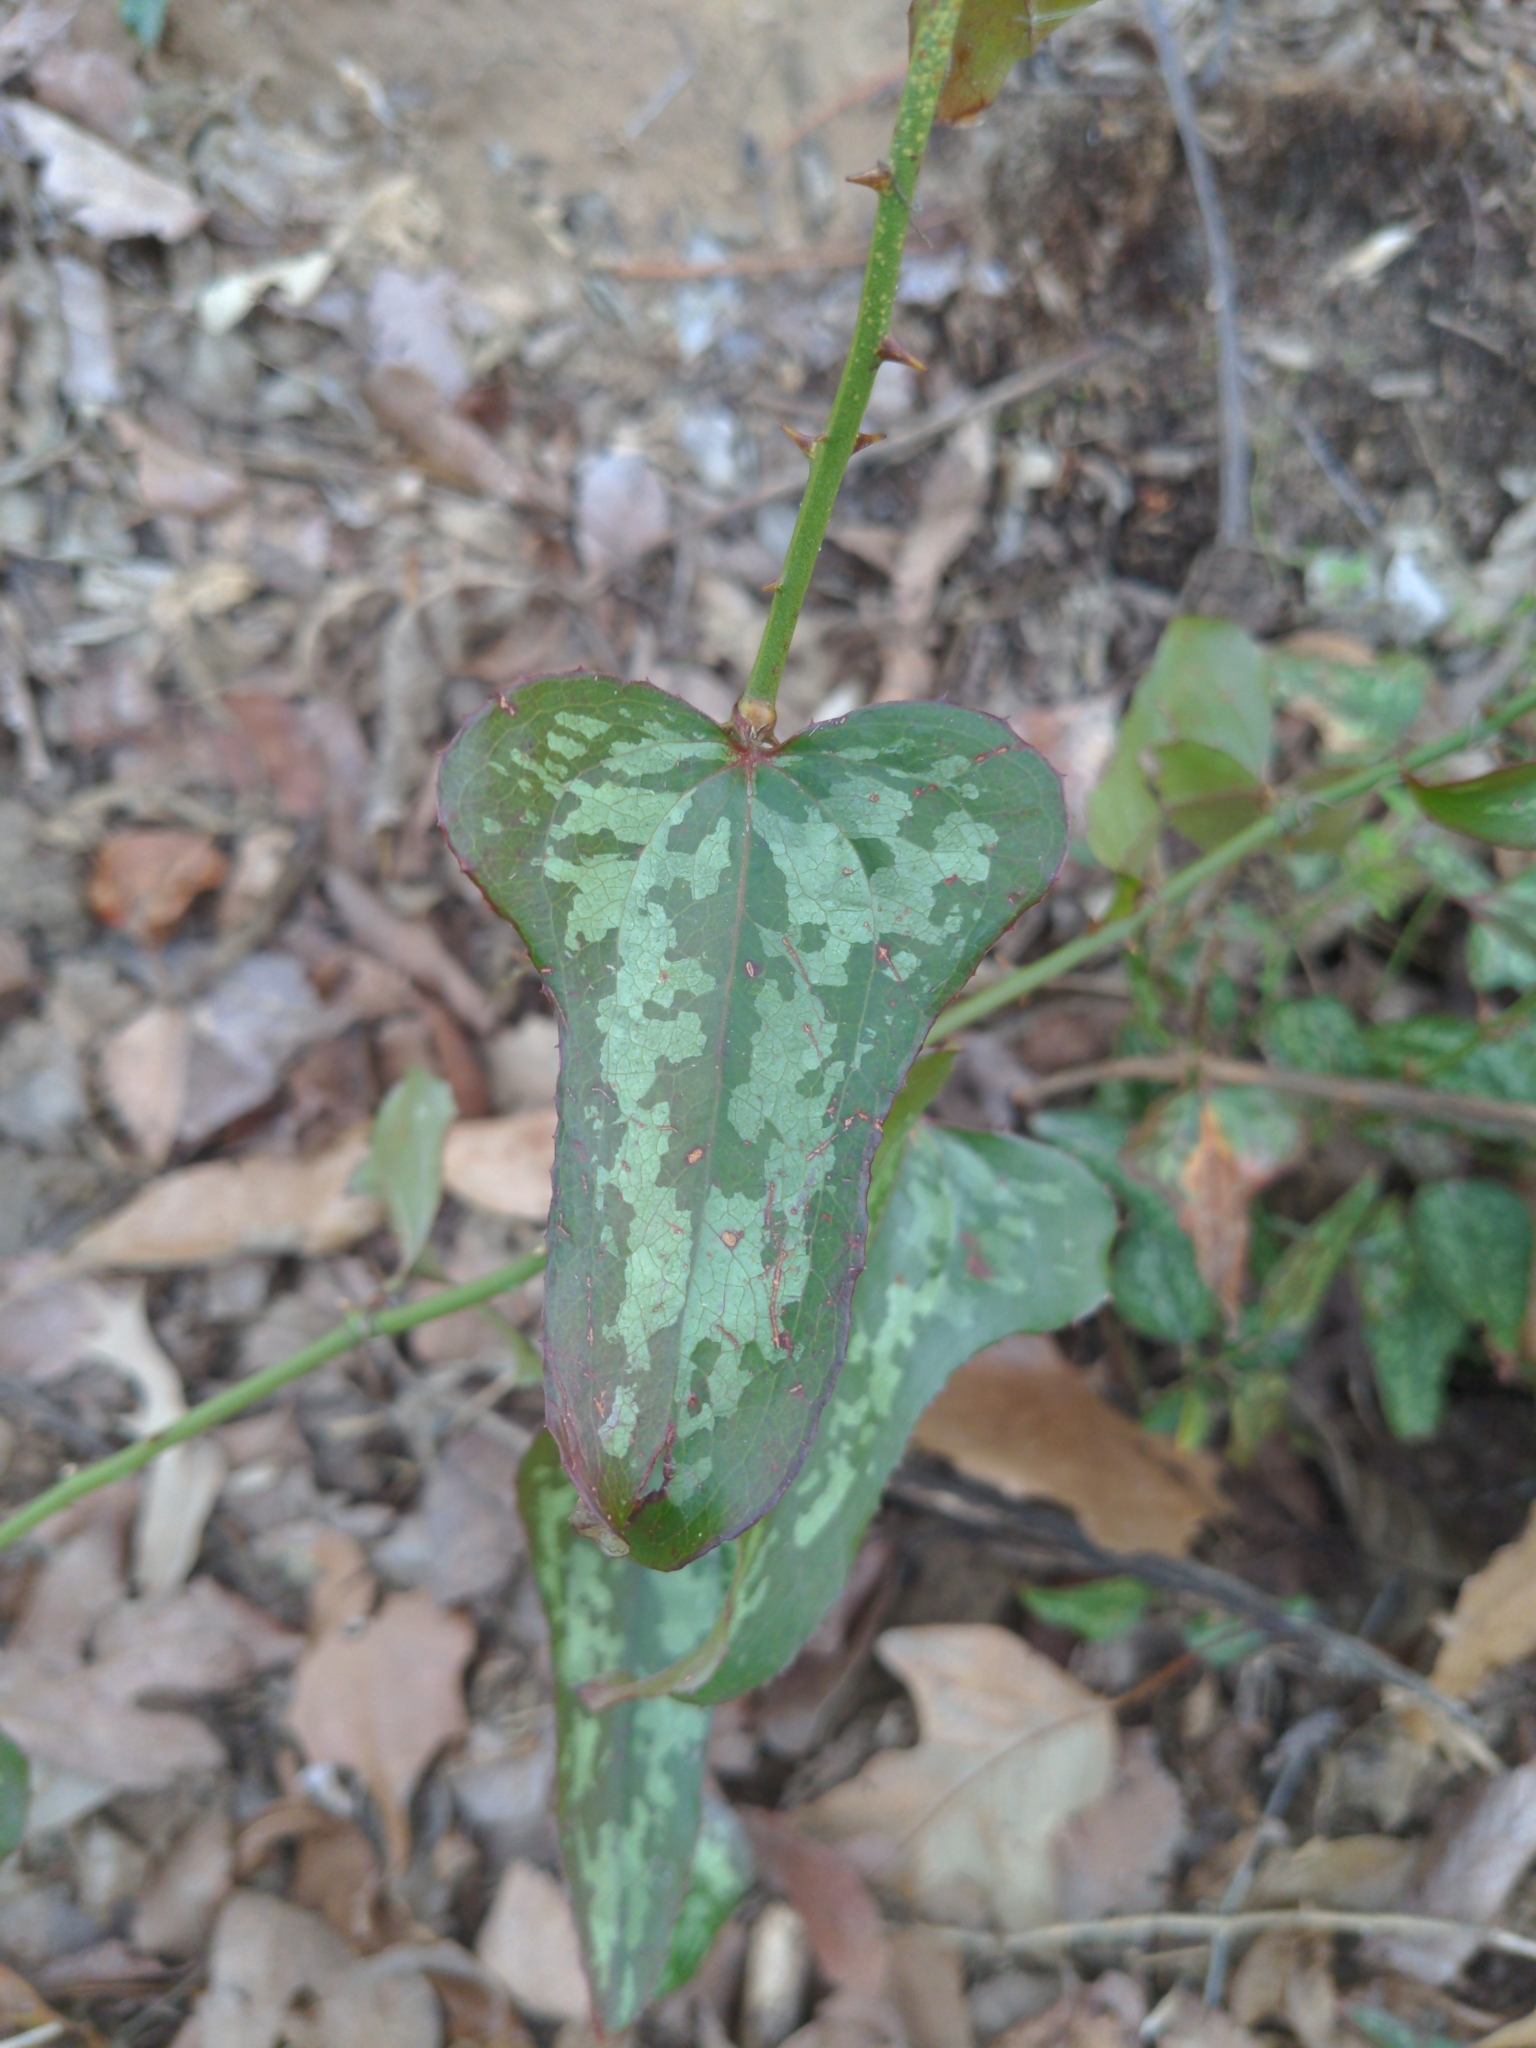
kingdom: Plantae
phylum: Tracheophyta
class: Liliopsida
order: Liliales
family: Smilacaceae
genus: Smilax
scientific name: Smilax bona-nox
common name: Catbrier
